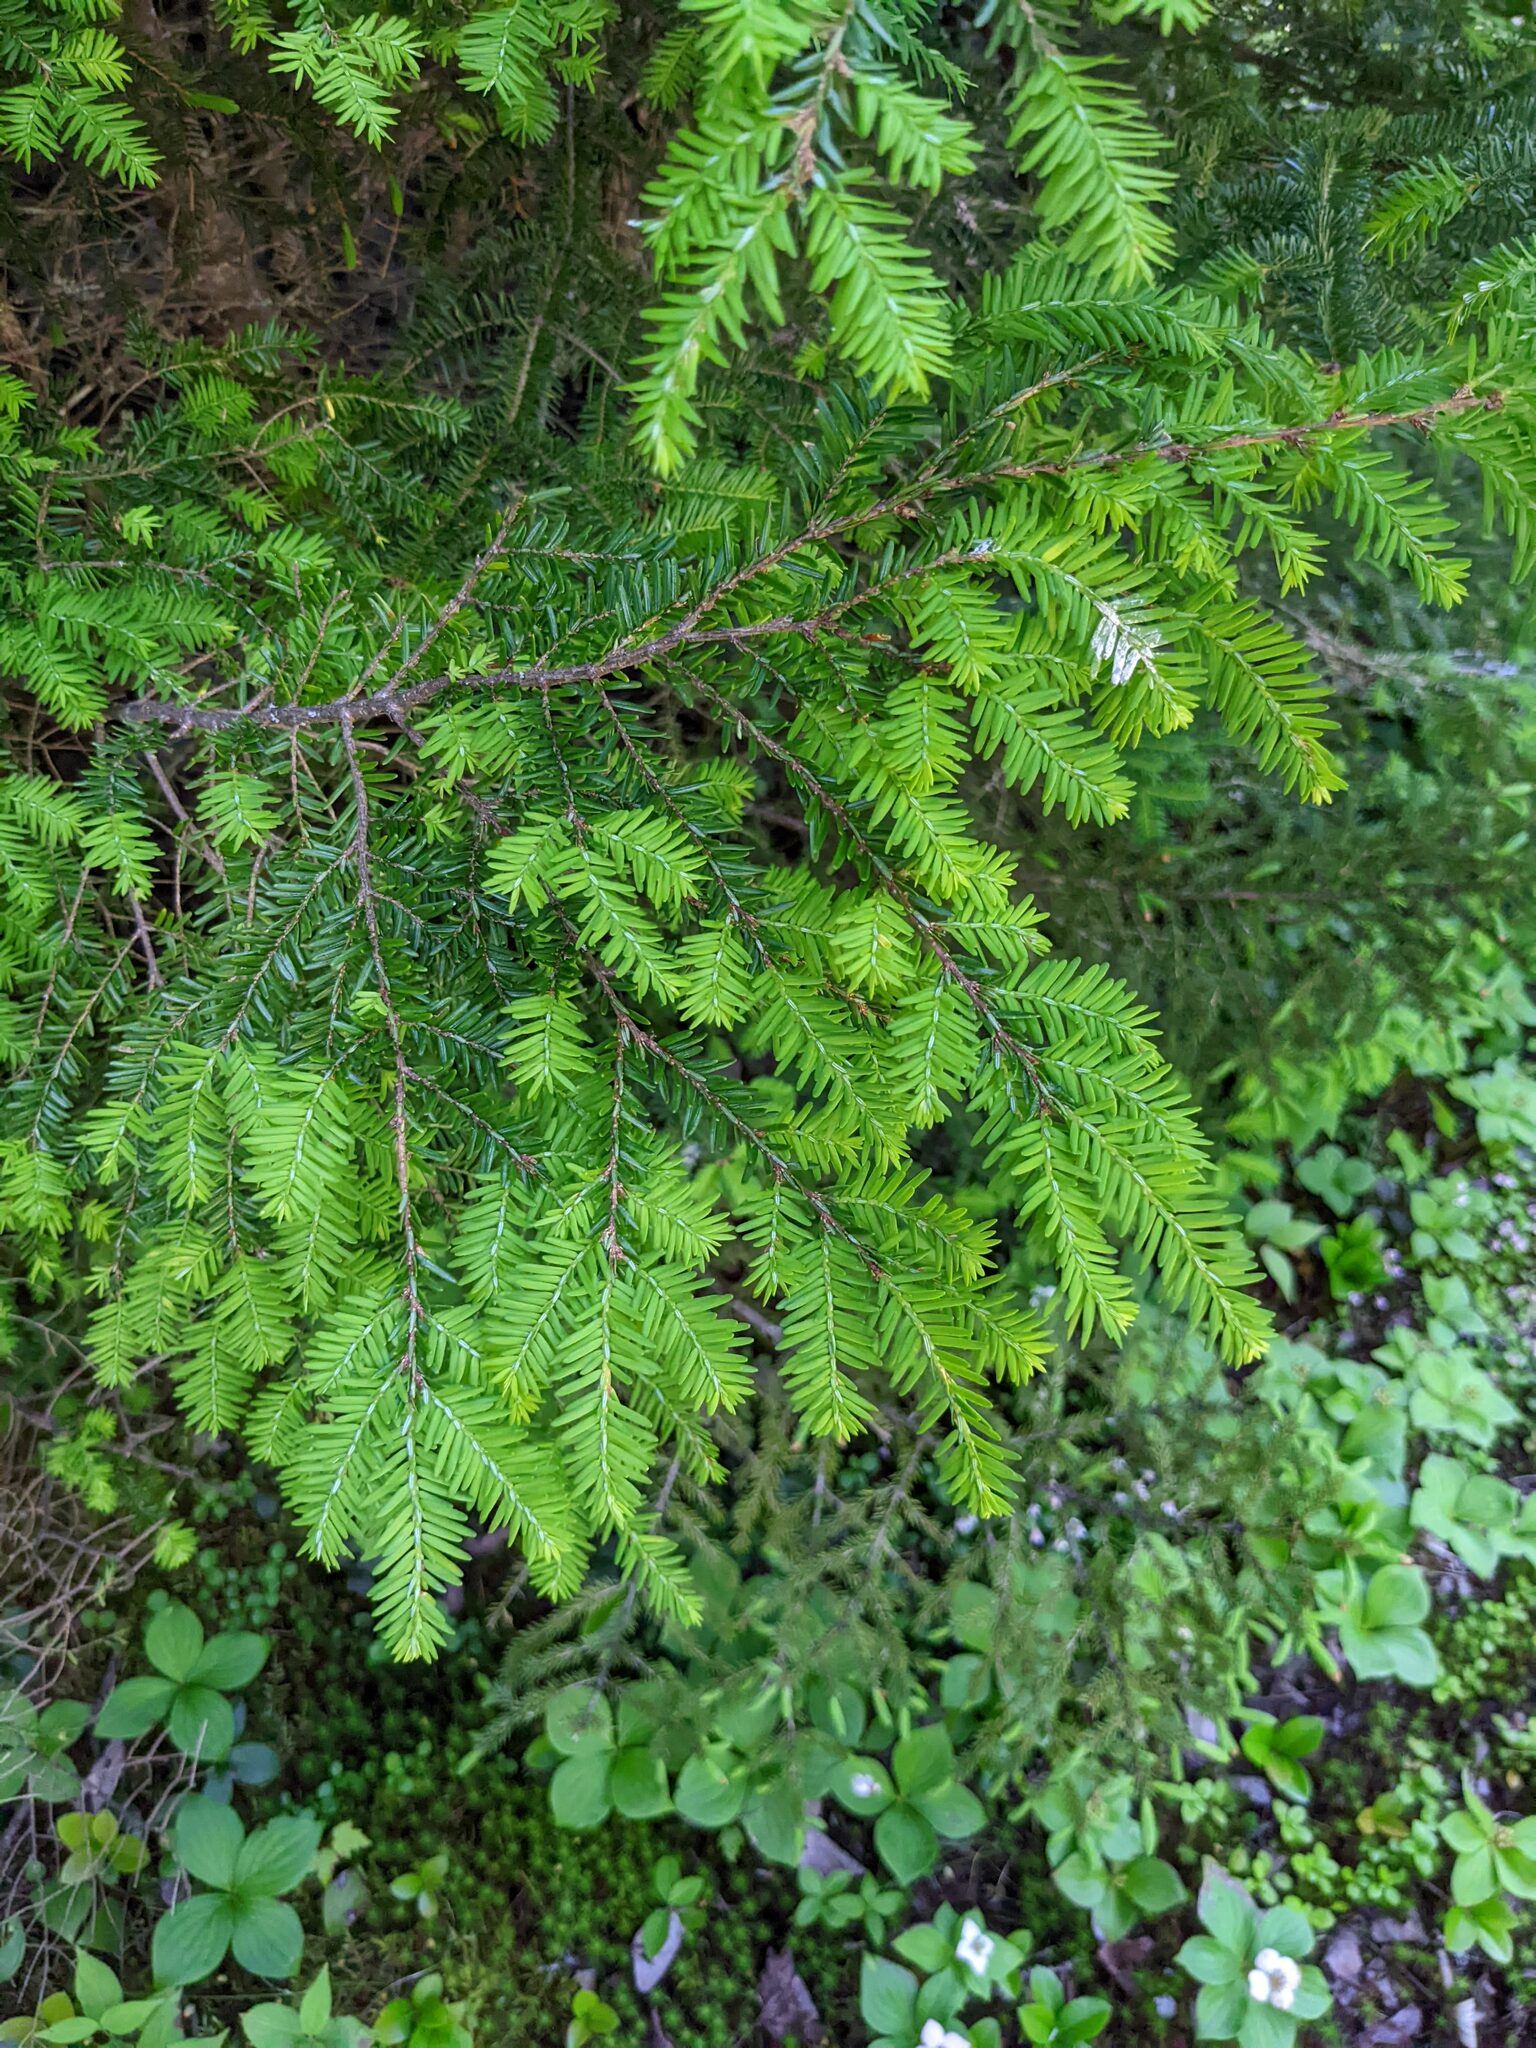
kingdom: Plantae
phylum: Tracheophyta
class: Pinopsida
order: Pinales
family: Pinaceae
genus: Tsuga
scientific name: Tsuga canadensis
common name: Eastern hemlock
